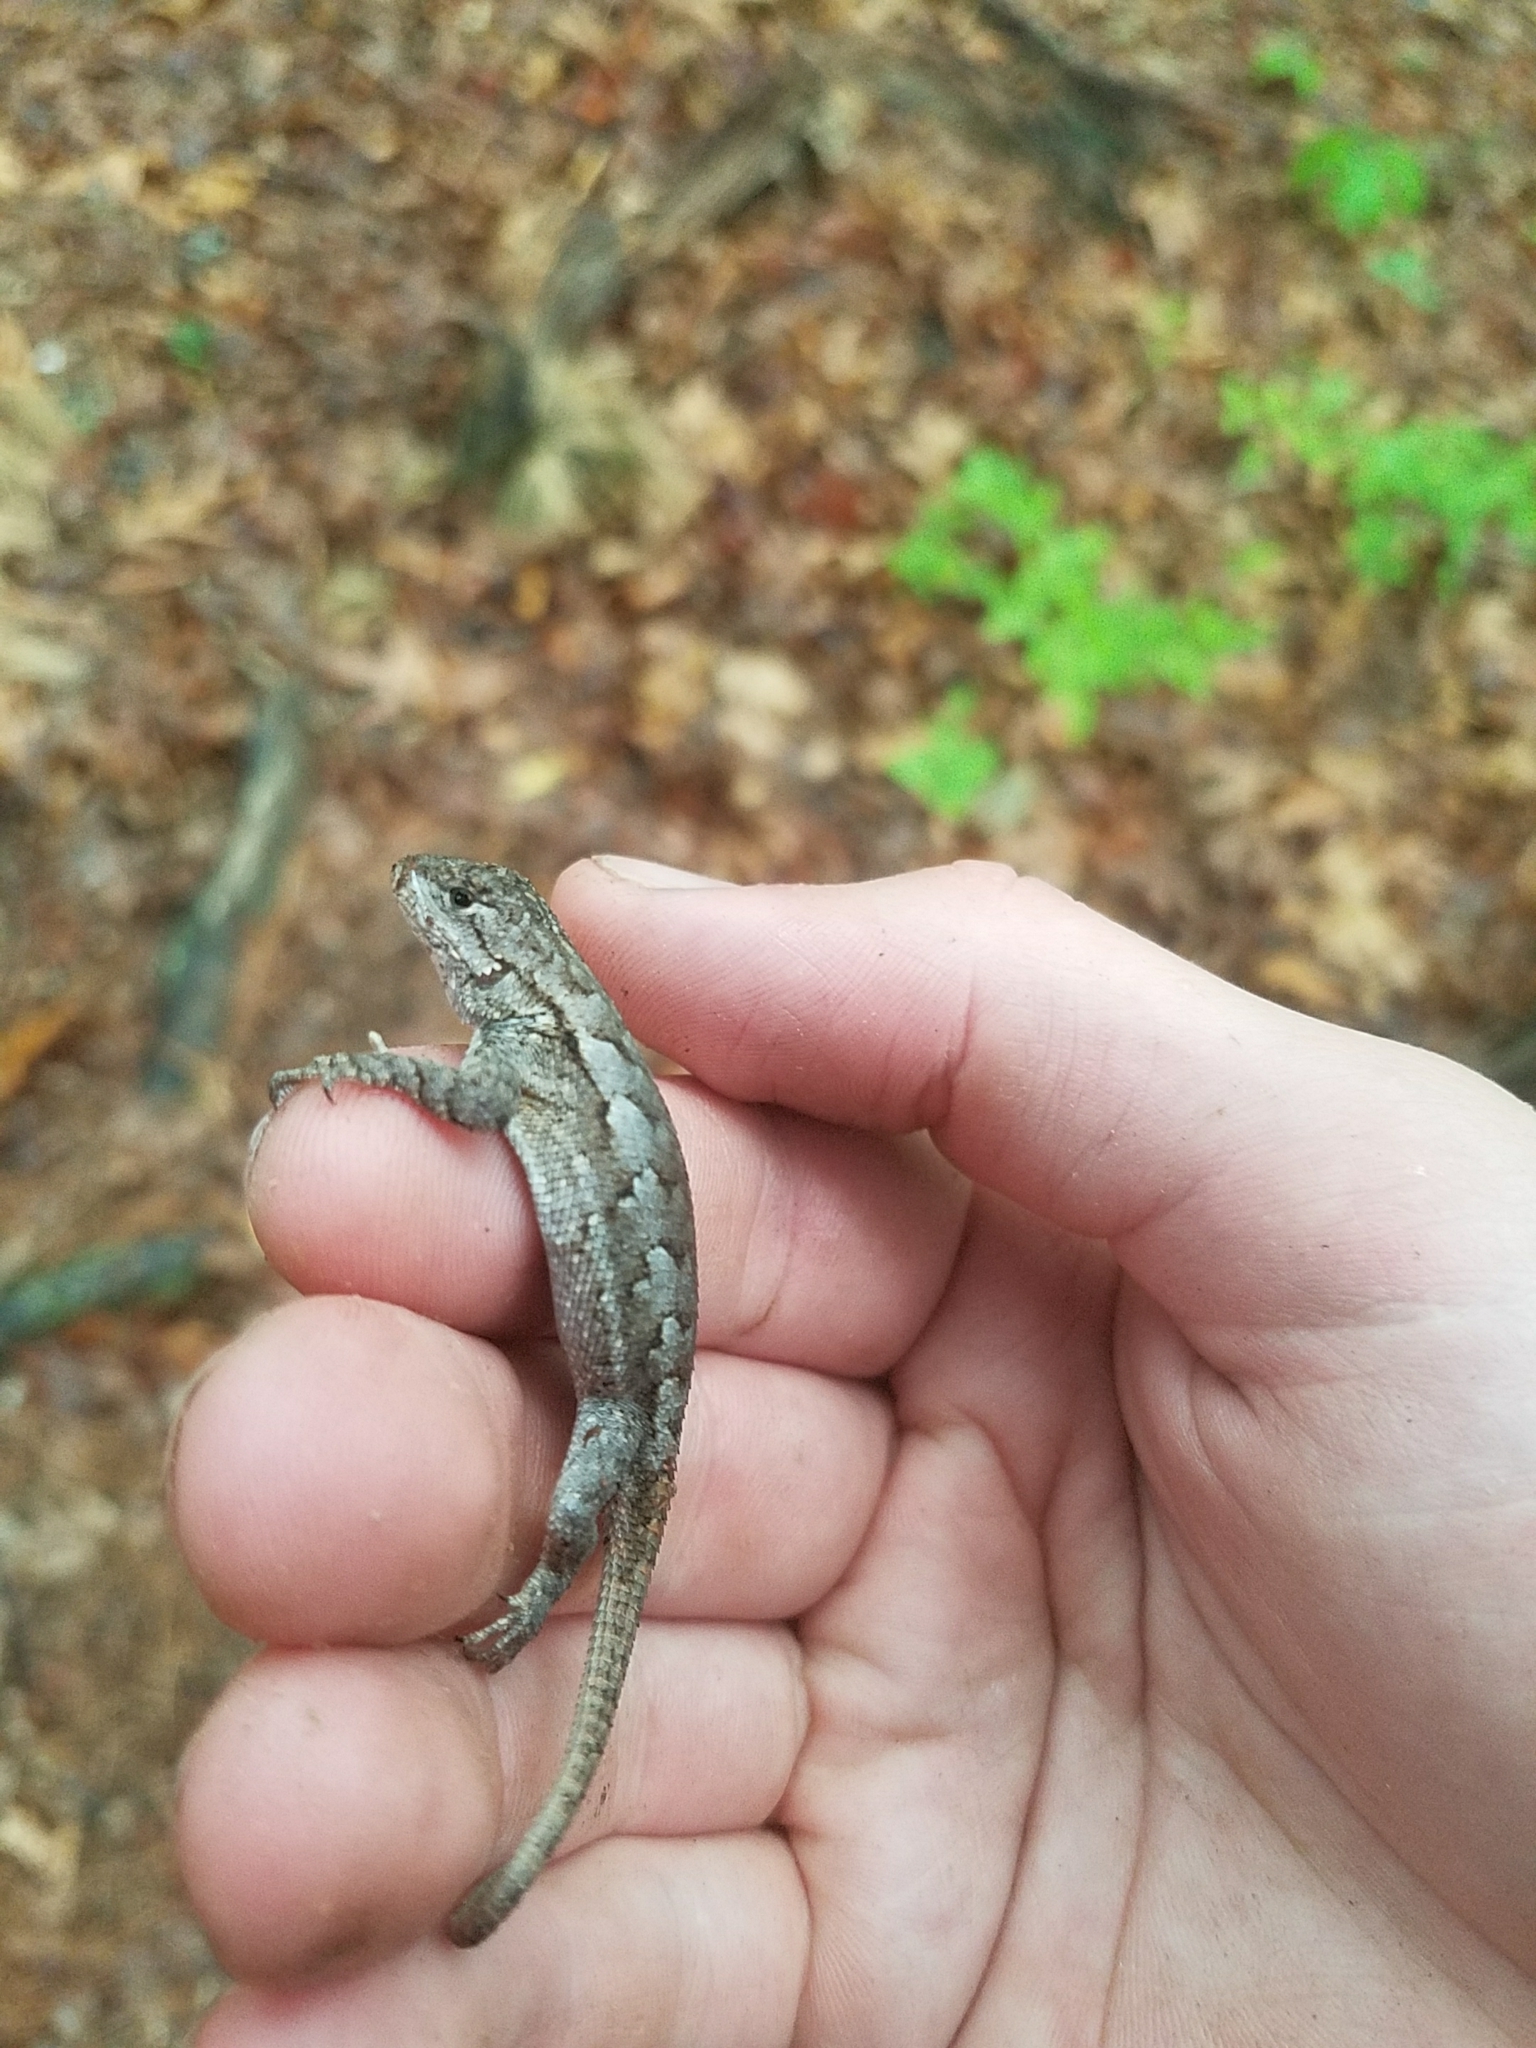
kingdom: Animalia
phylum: Chordata
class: Squamata
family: Phrynosomatidae
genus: Sceloporus
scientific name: Sceloporus undulatus
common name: Eastern fence lizard
